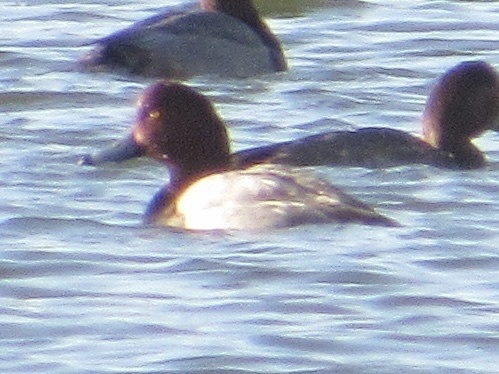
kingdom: Animalia
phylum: Chordata
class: Aves
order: Anseriformes
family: Anatidae
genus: Aythya
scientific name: Aythya americana
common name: Redhead
